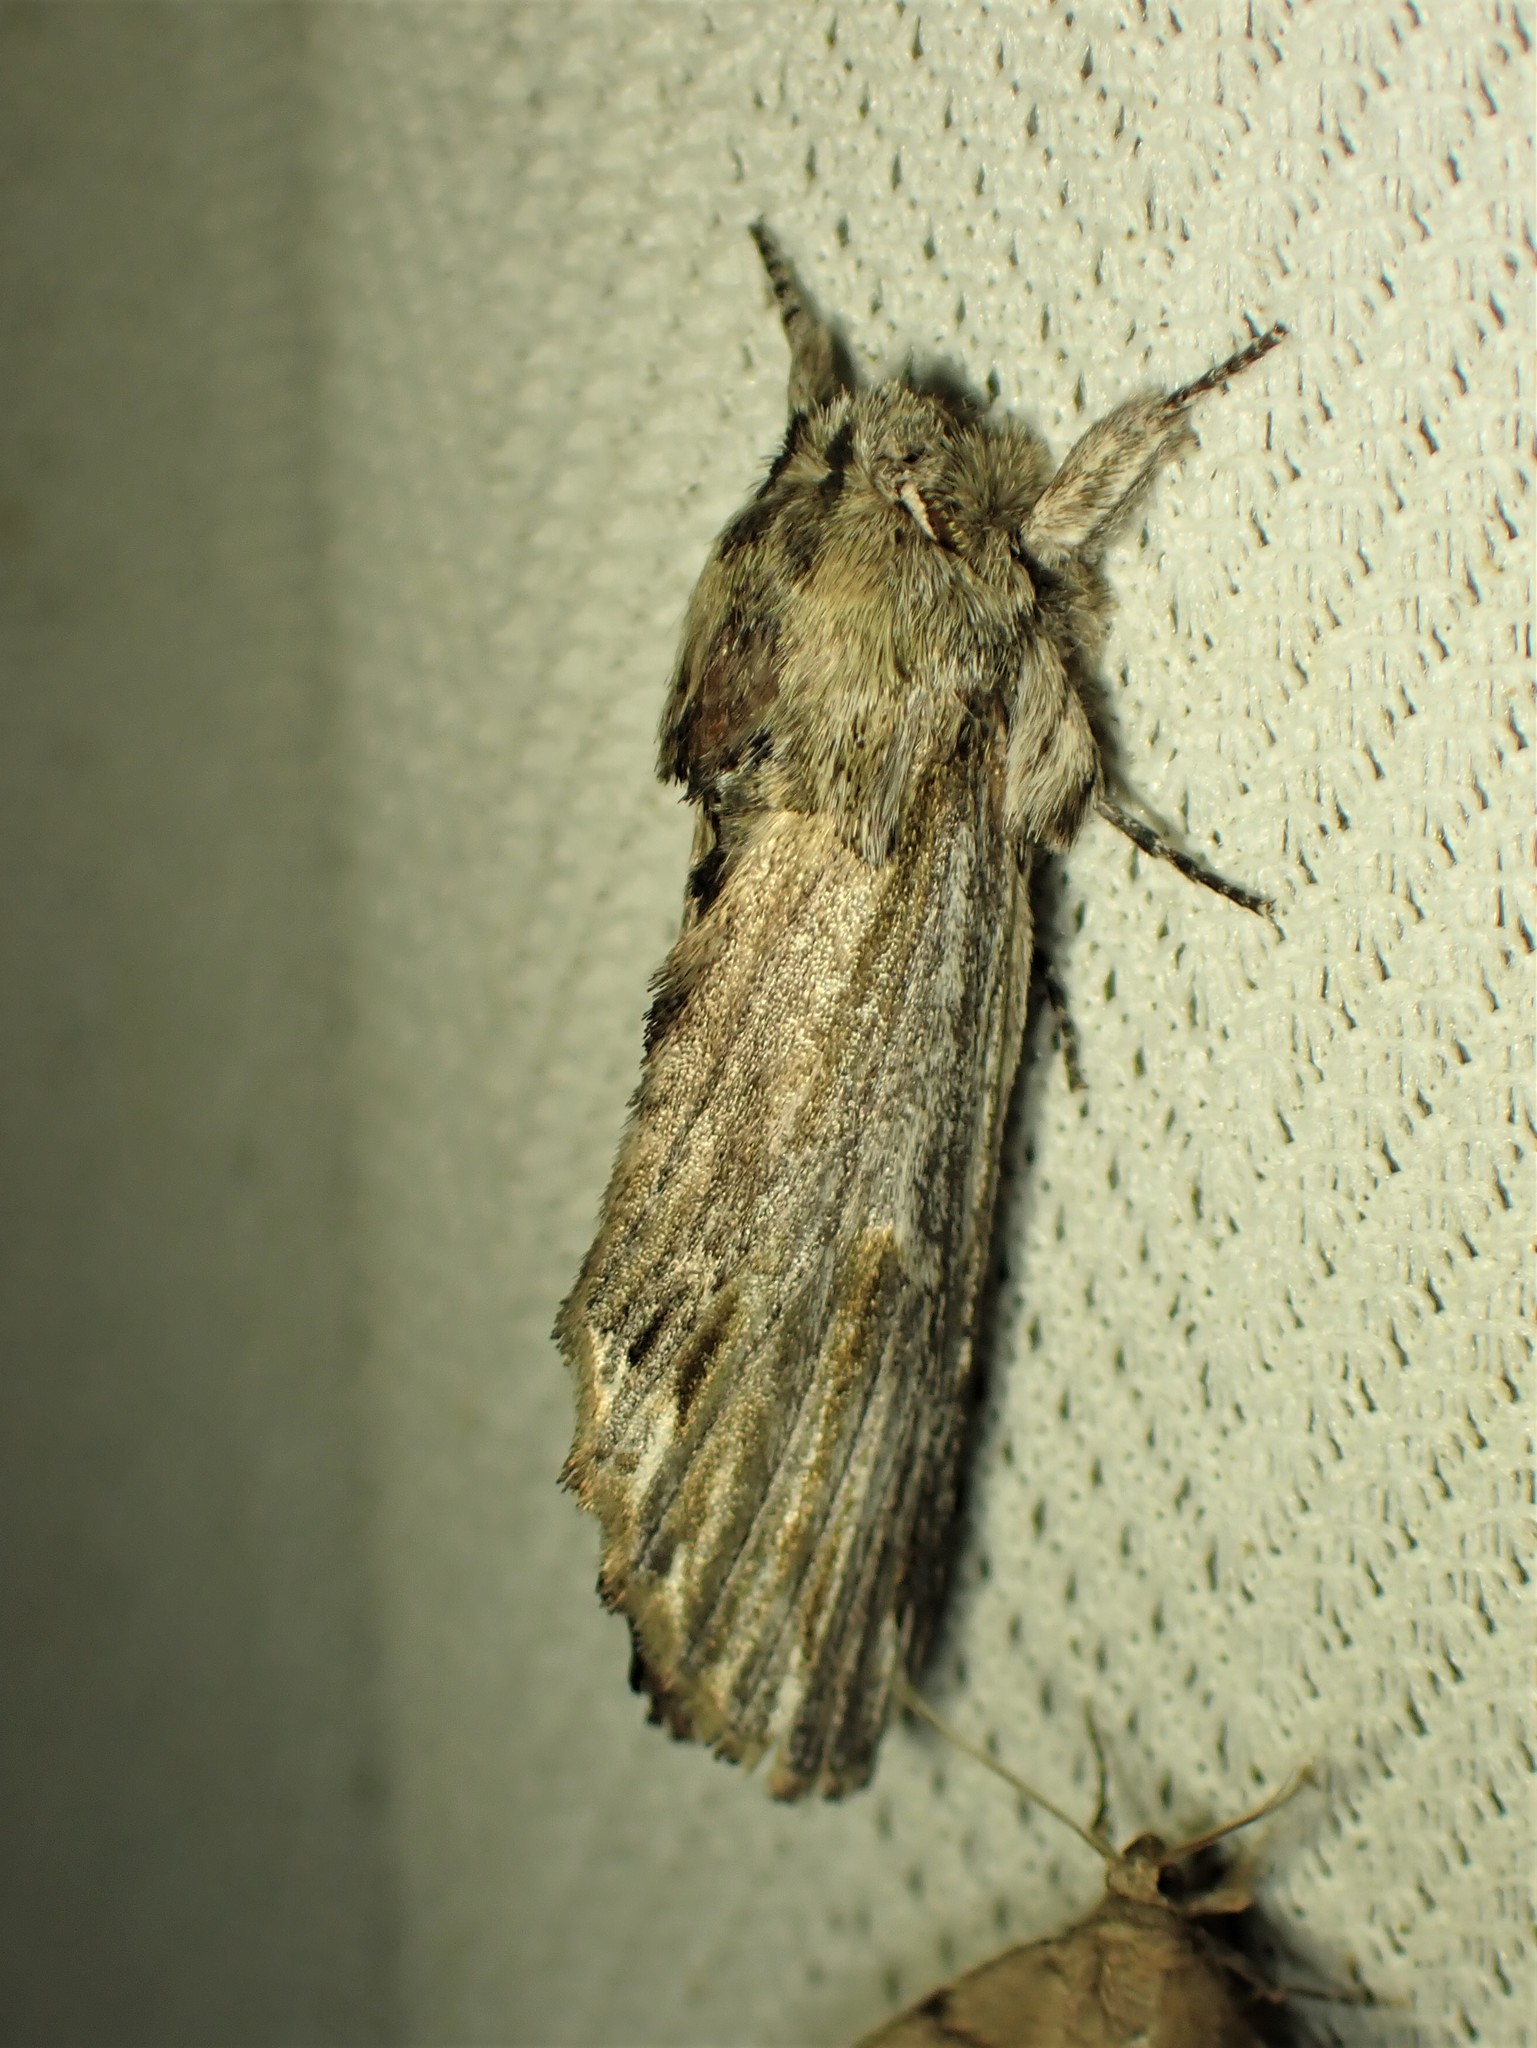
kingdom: Animalia
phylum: Arthropoda
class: Insecta
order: Lepidoptera
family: Notodontidae
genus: Oligocentria
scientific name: Oligocentria Ianassa lignicolor
